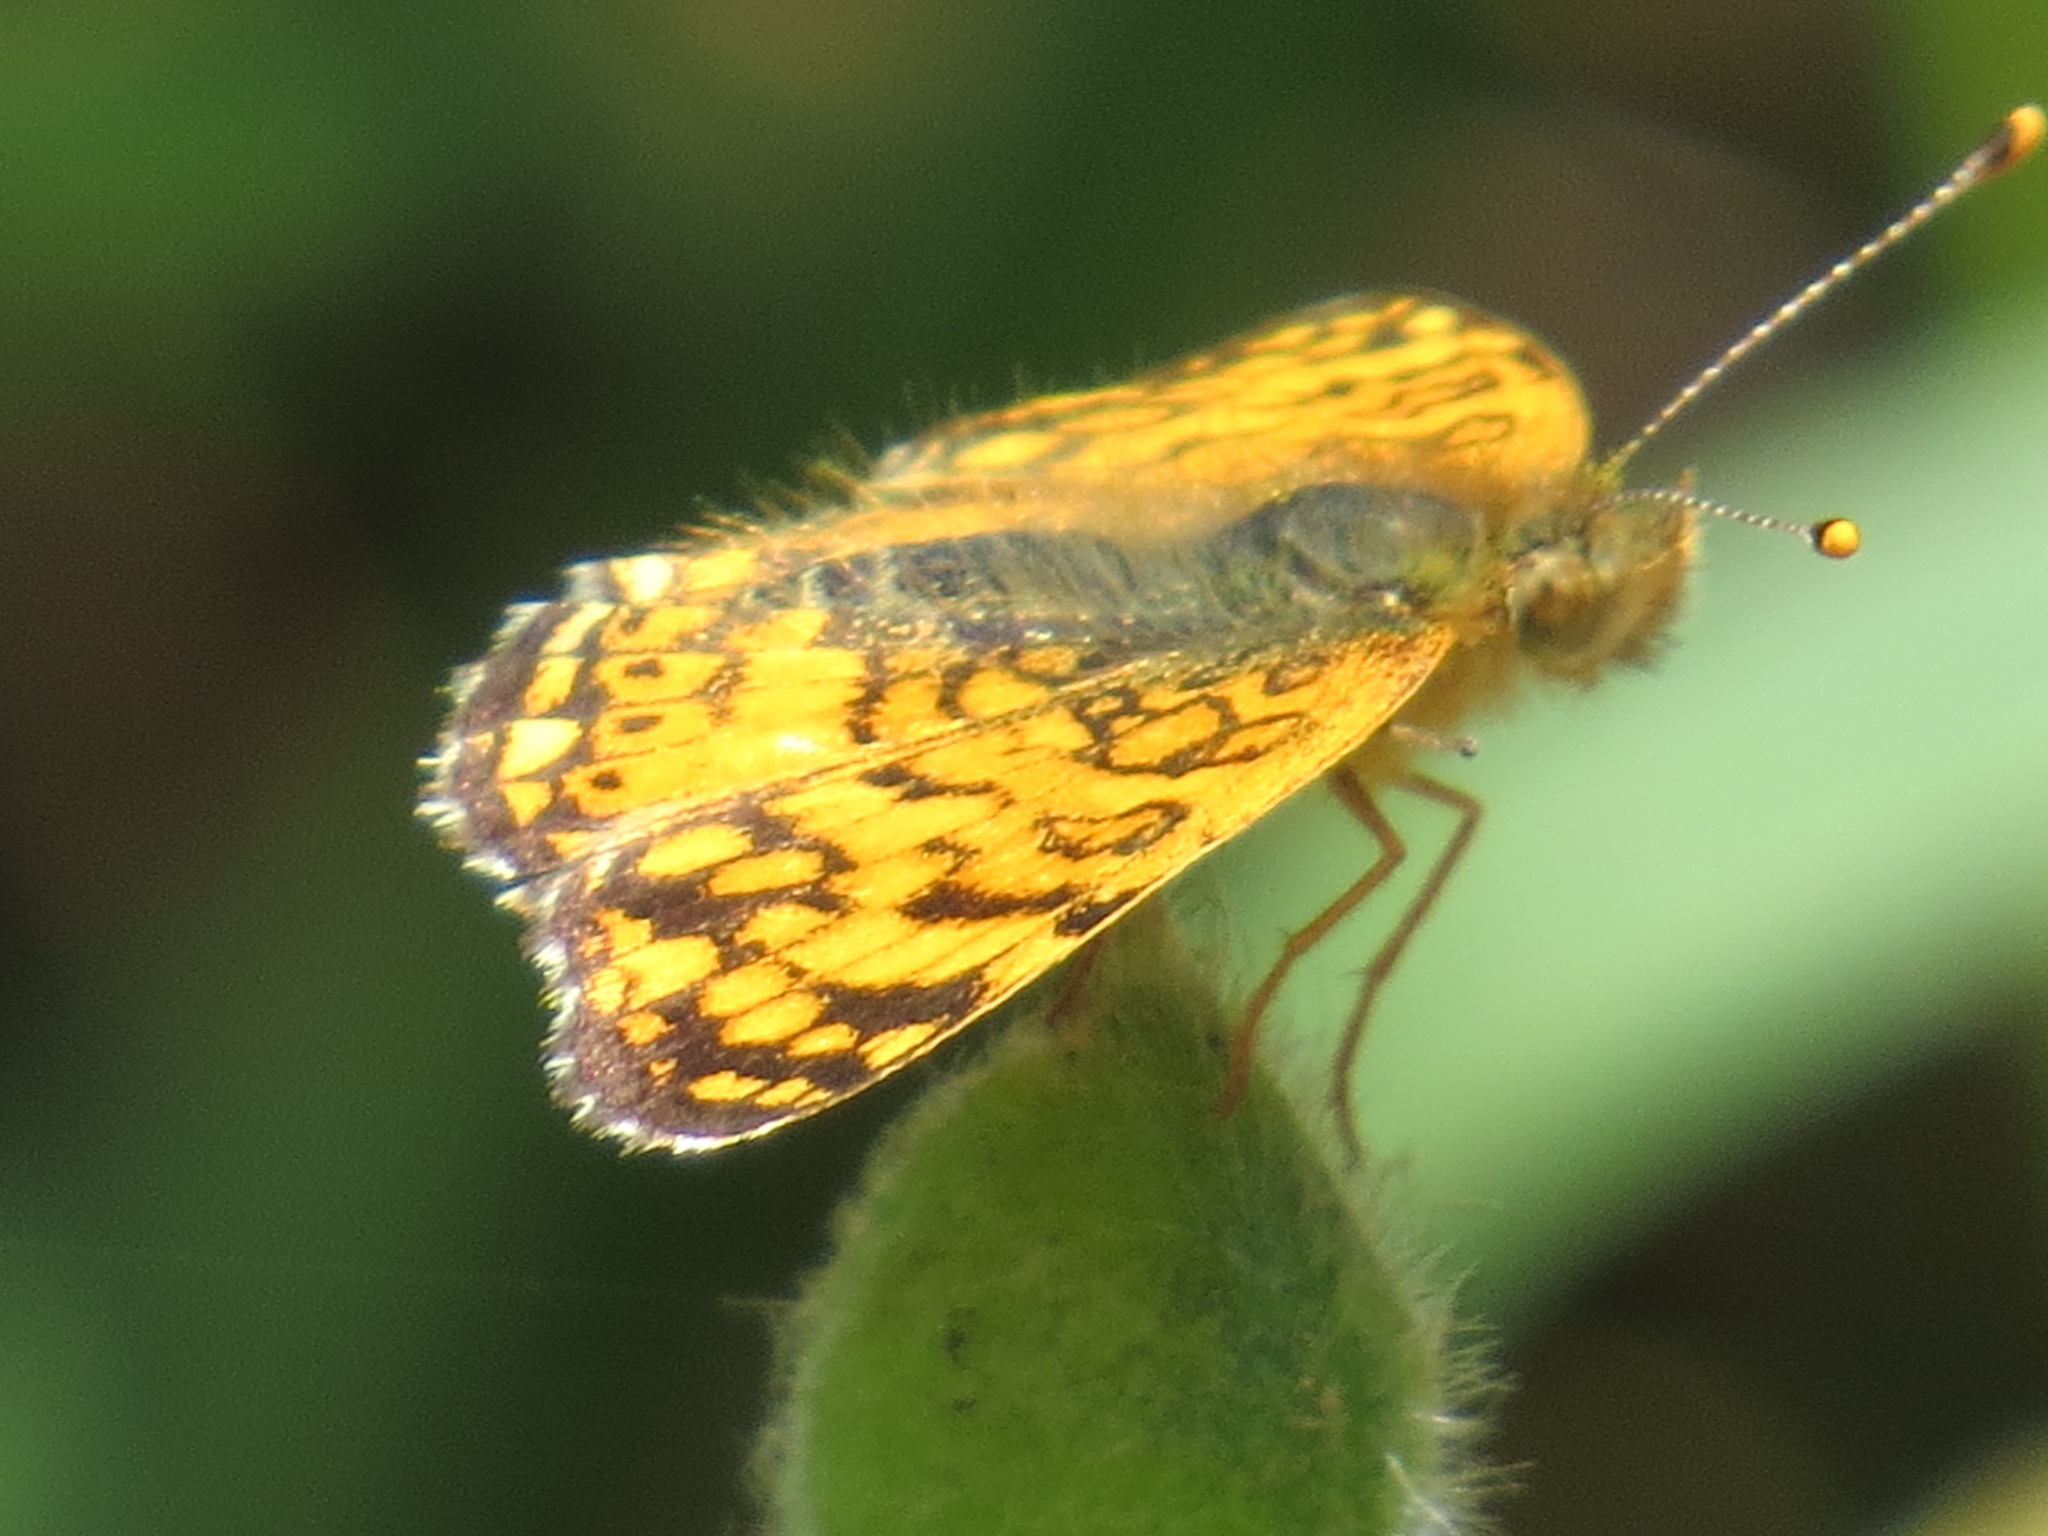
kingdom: Animalia
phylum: Arthropoda
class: Insecta
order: Lepidoptera
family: Nymphalidae
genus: Eresia
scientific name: Eresia aveyrona
